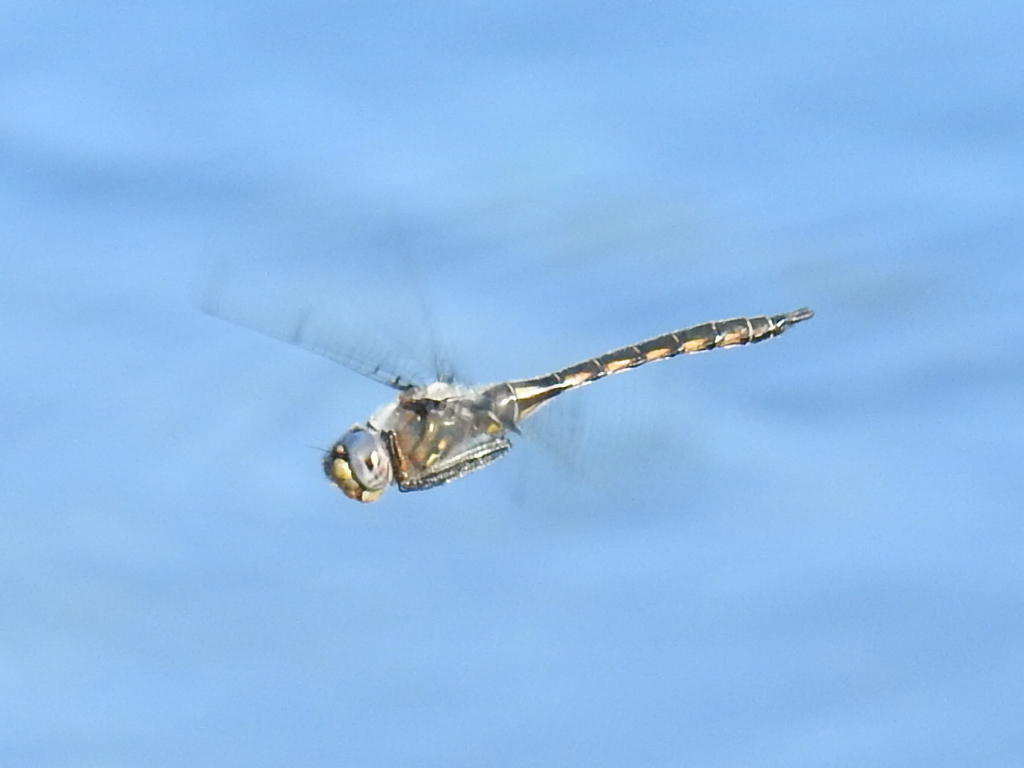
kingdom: Animalia
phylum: Arthropoda
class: Insecta
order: Odonata
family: Corduliidae
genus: Epitheca
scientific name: Epitheca petechialis
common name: Dot-winged baskettail
